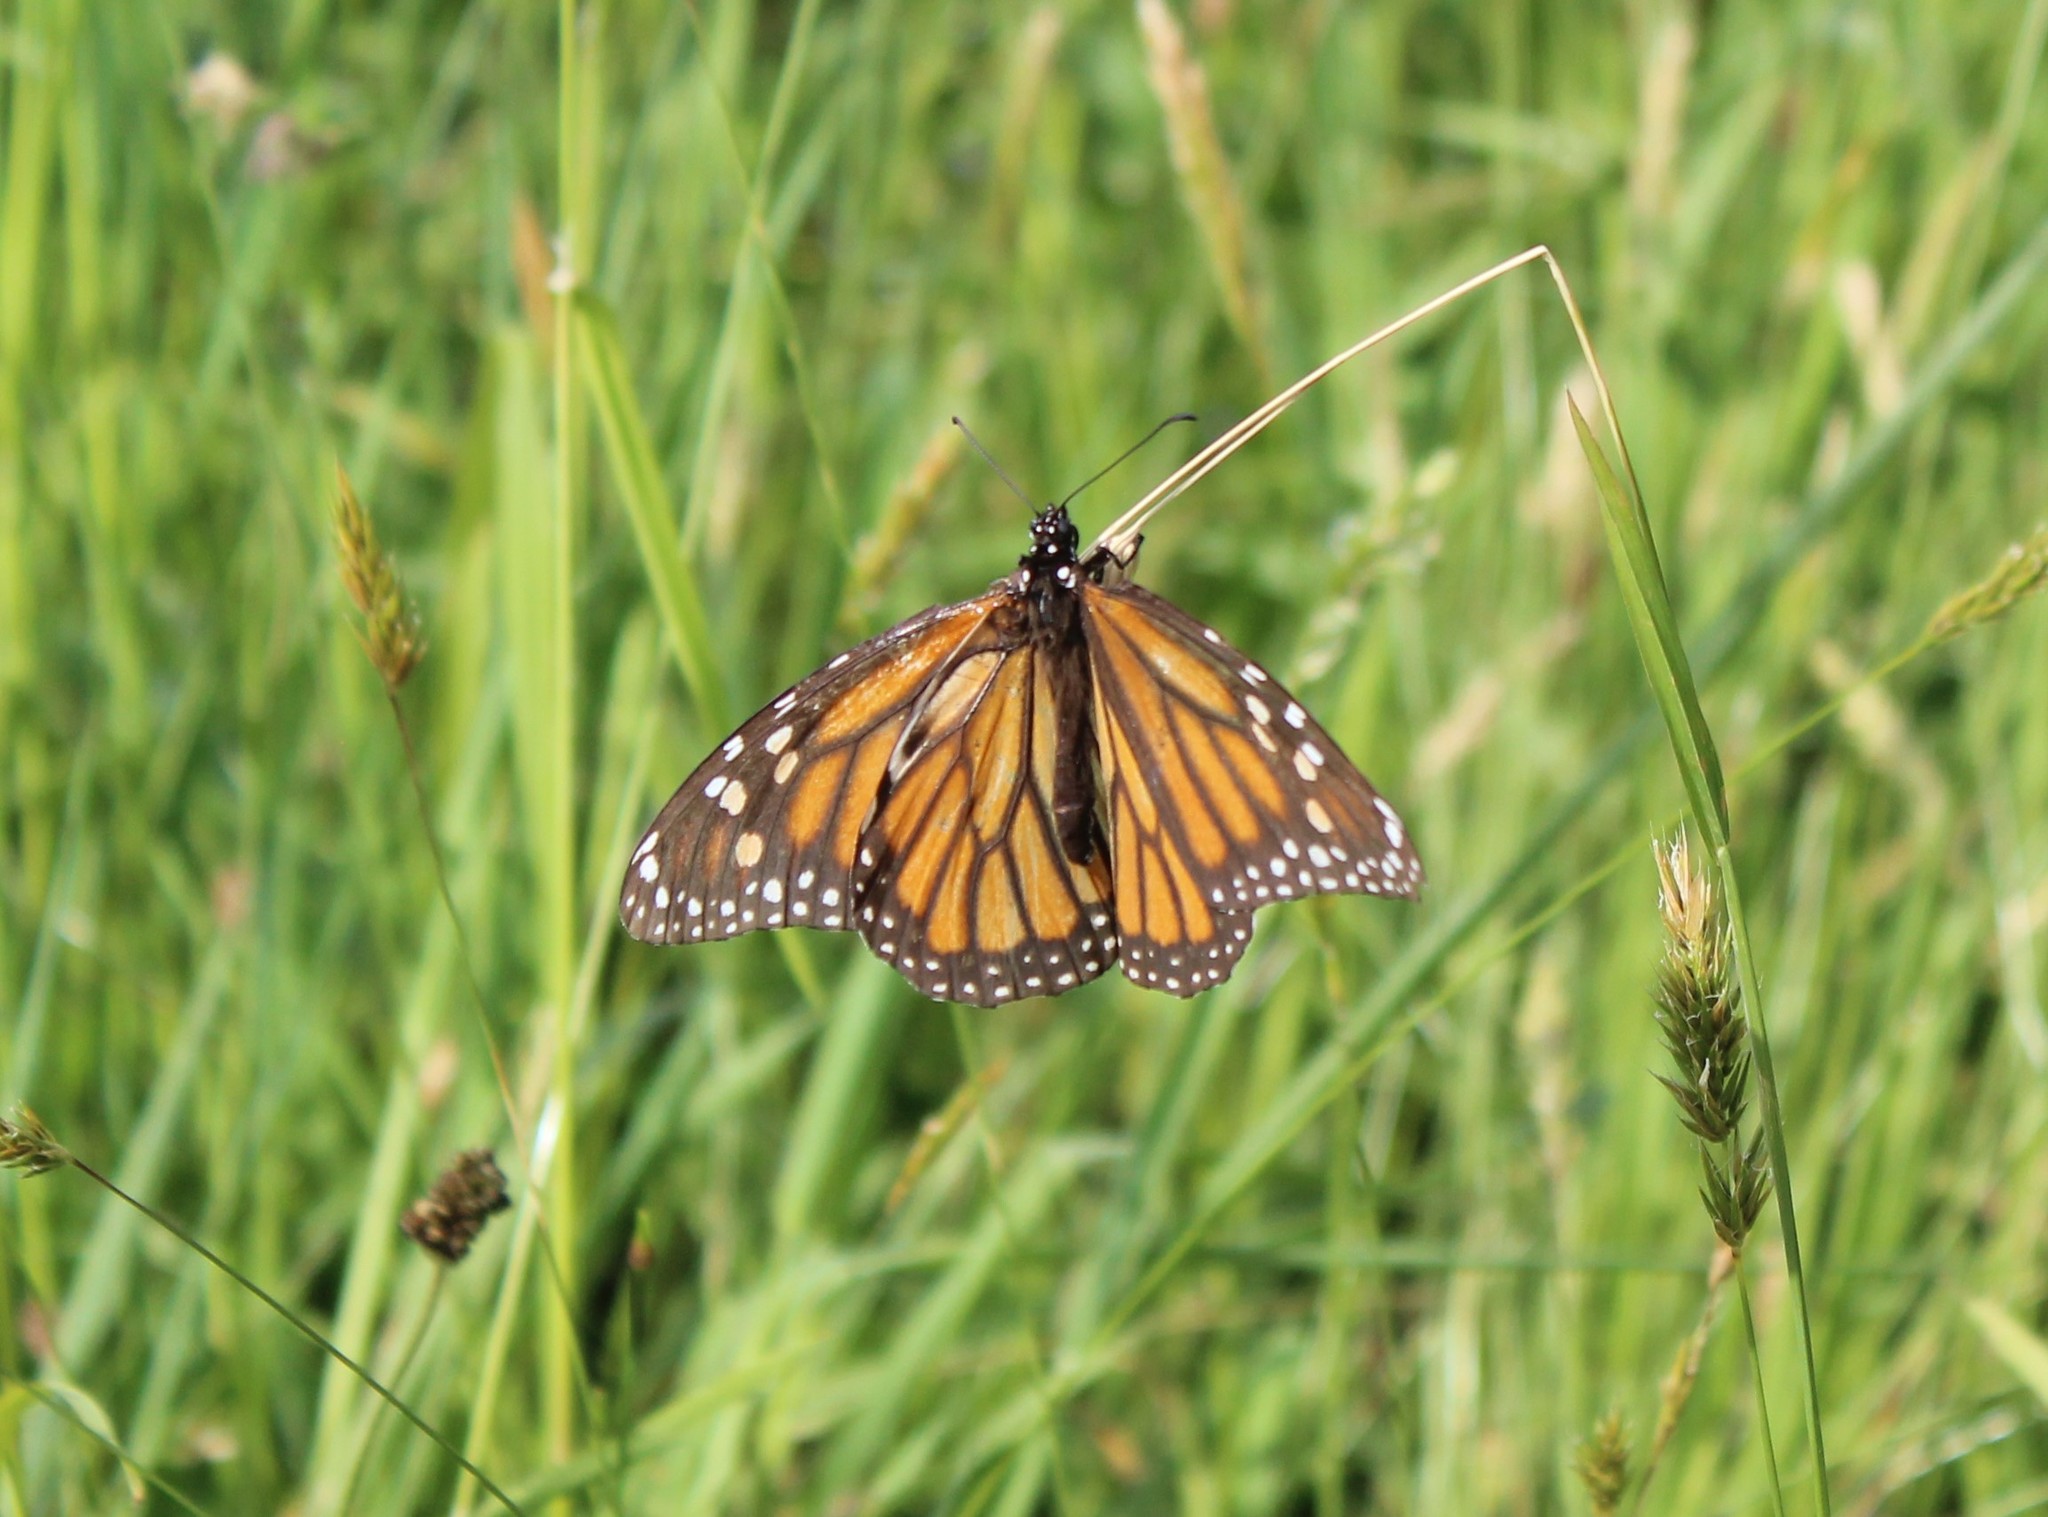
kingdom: Animalia
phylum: Arthropoda
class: Insecta
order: Lepidoptera
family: Nymphalidae
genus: Danaus
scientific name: Danaus plexippus
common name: Monarch
